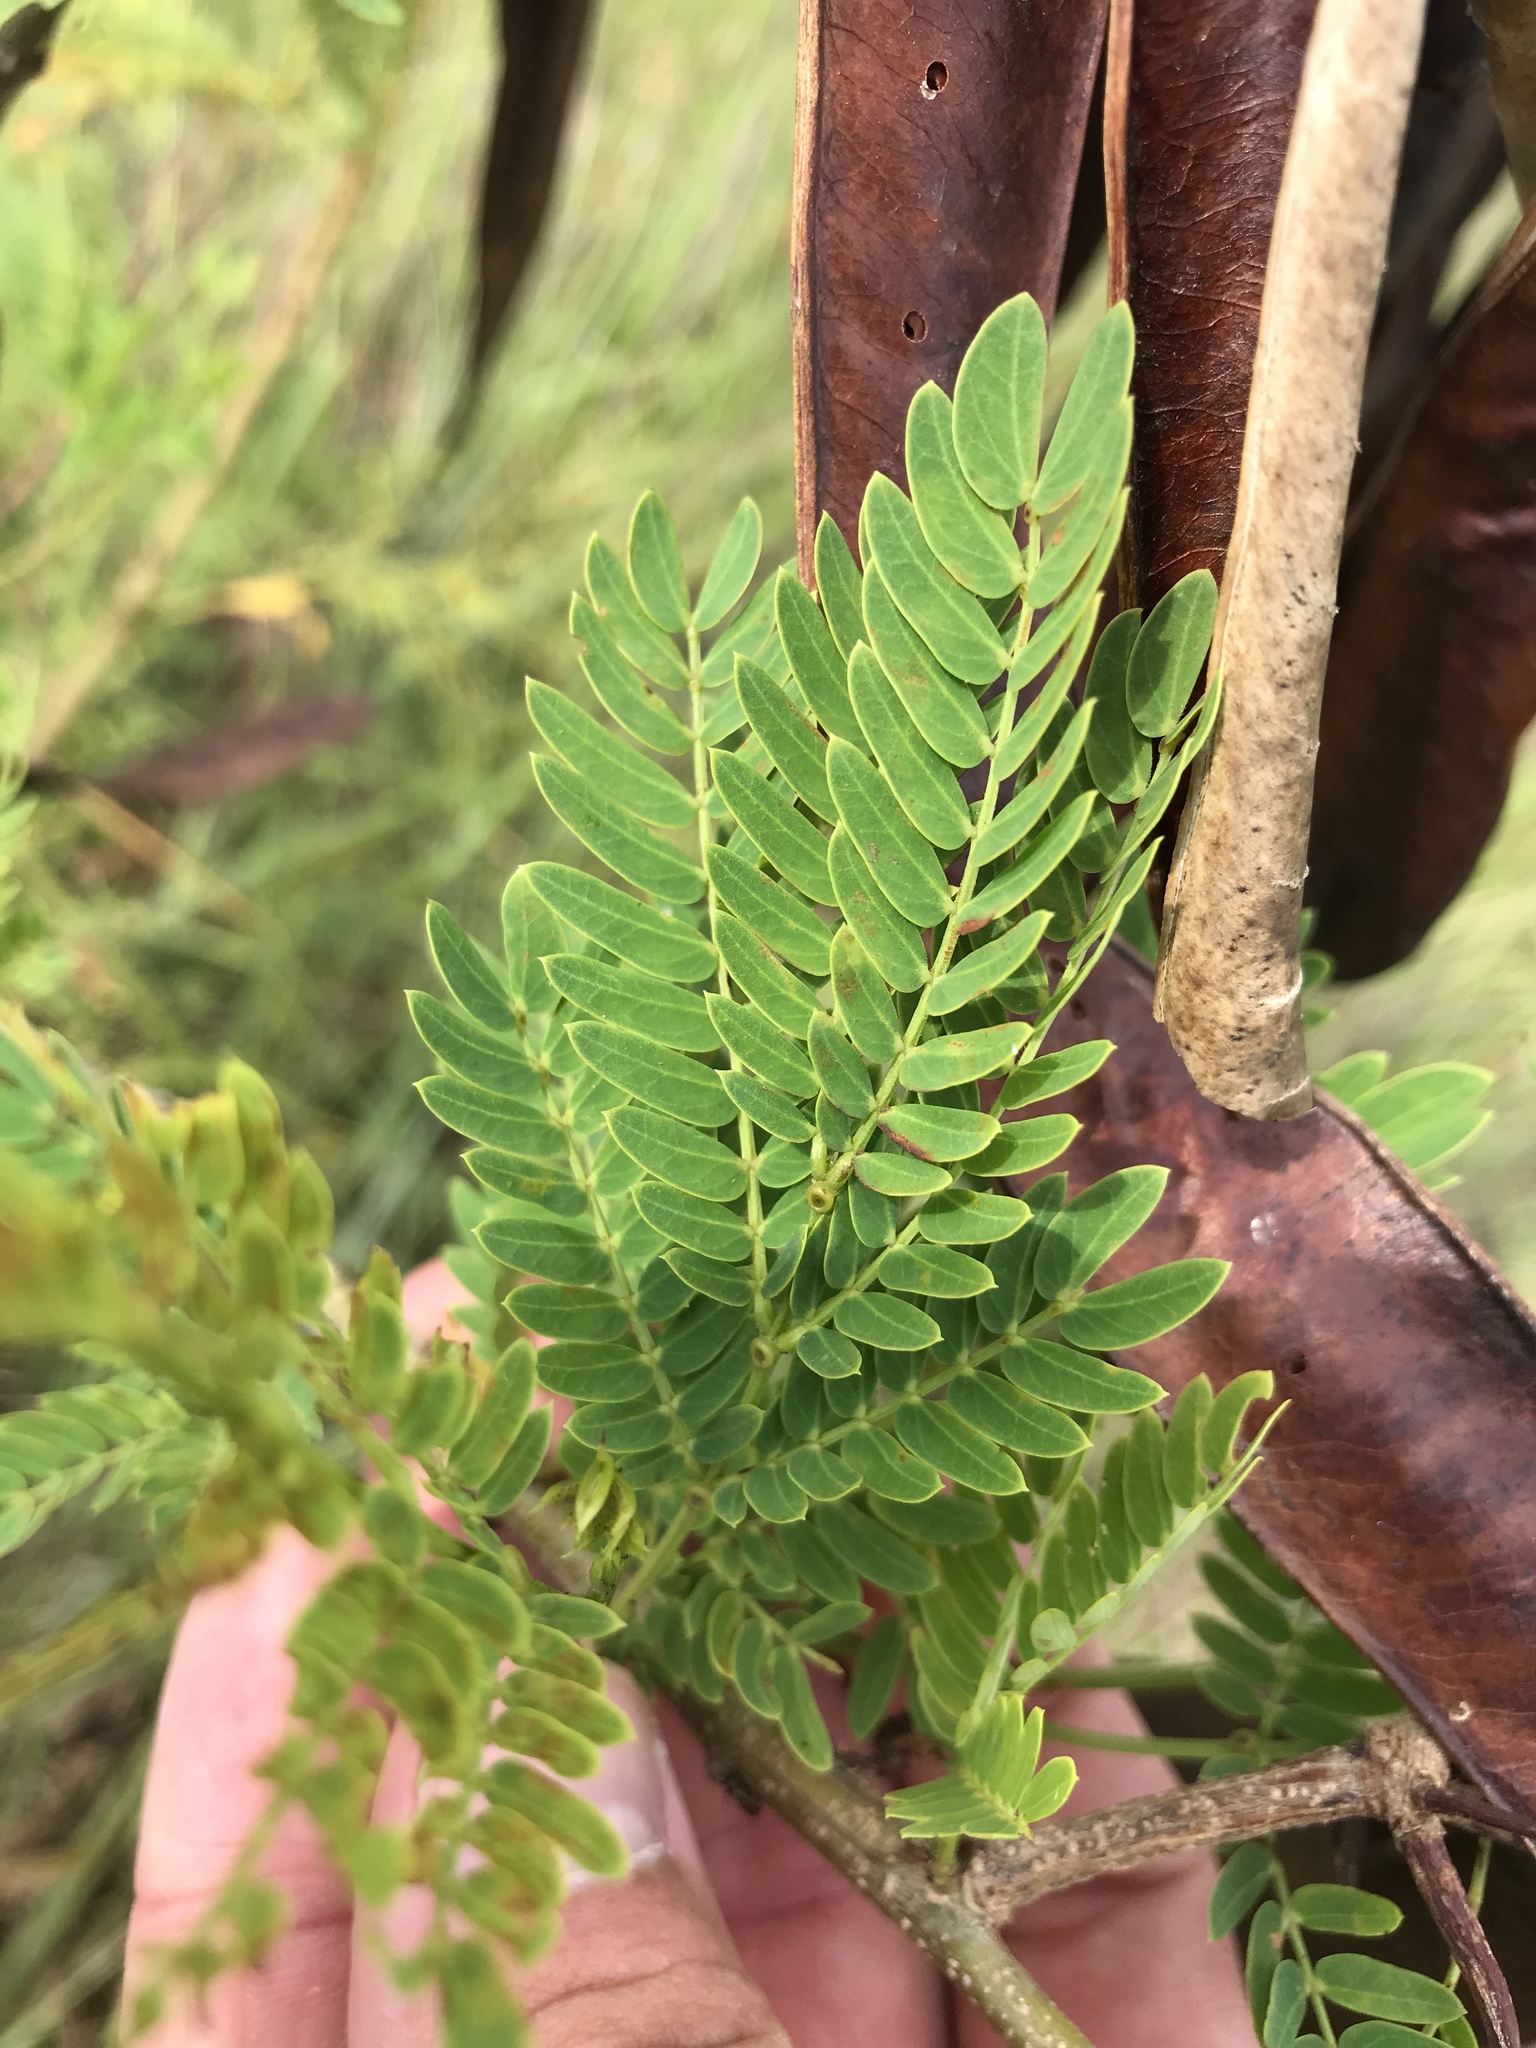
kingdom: Plantae
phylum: Tracheophyta
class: Magnoliopsida
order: Fabales
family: Fabaceae
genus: Leucaena
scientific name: Leucaena leucocephala
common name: White leadtree
